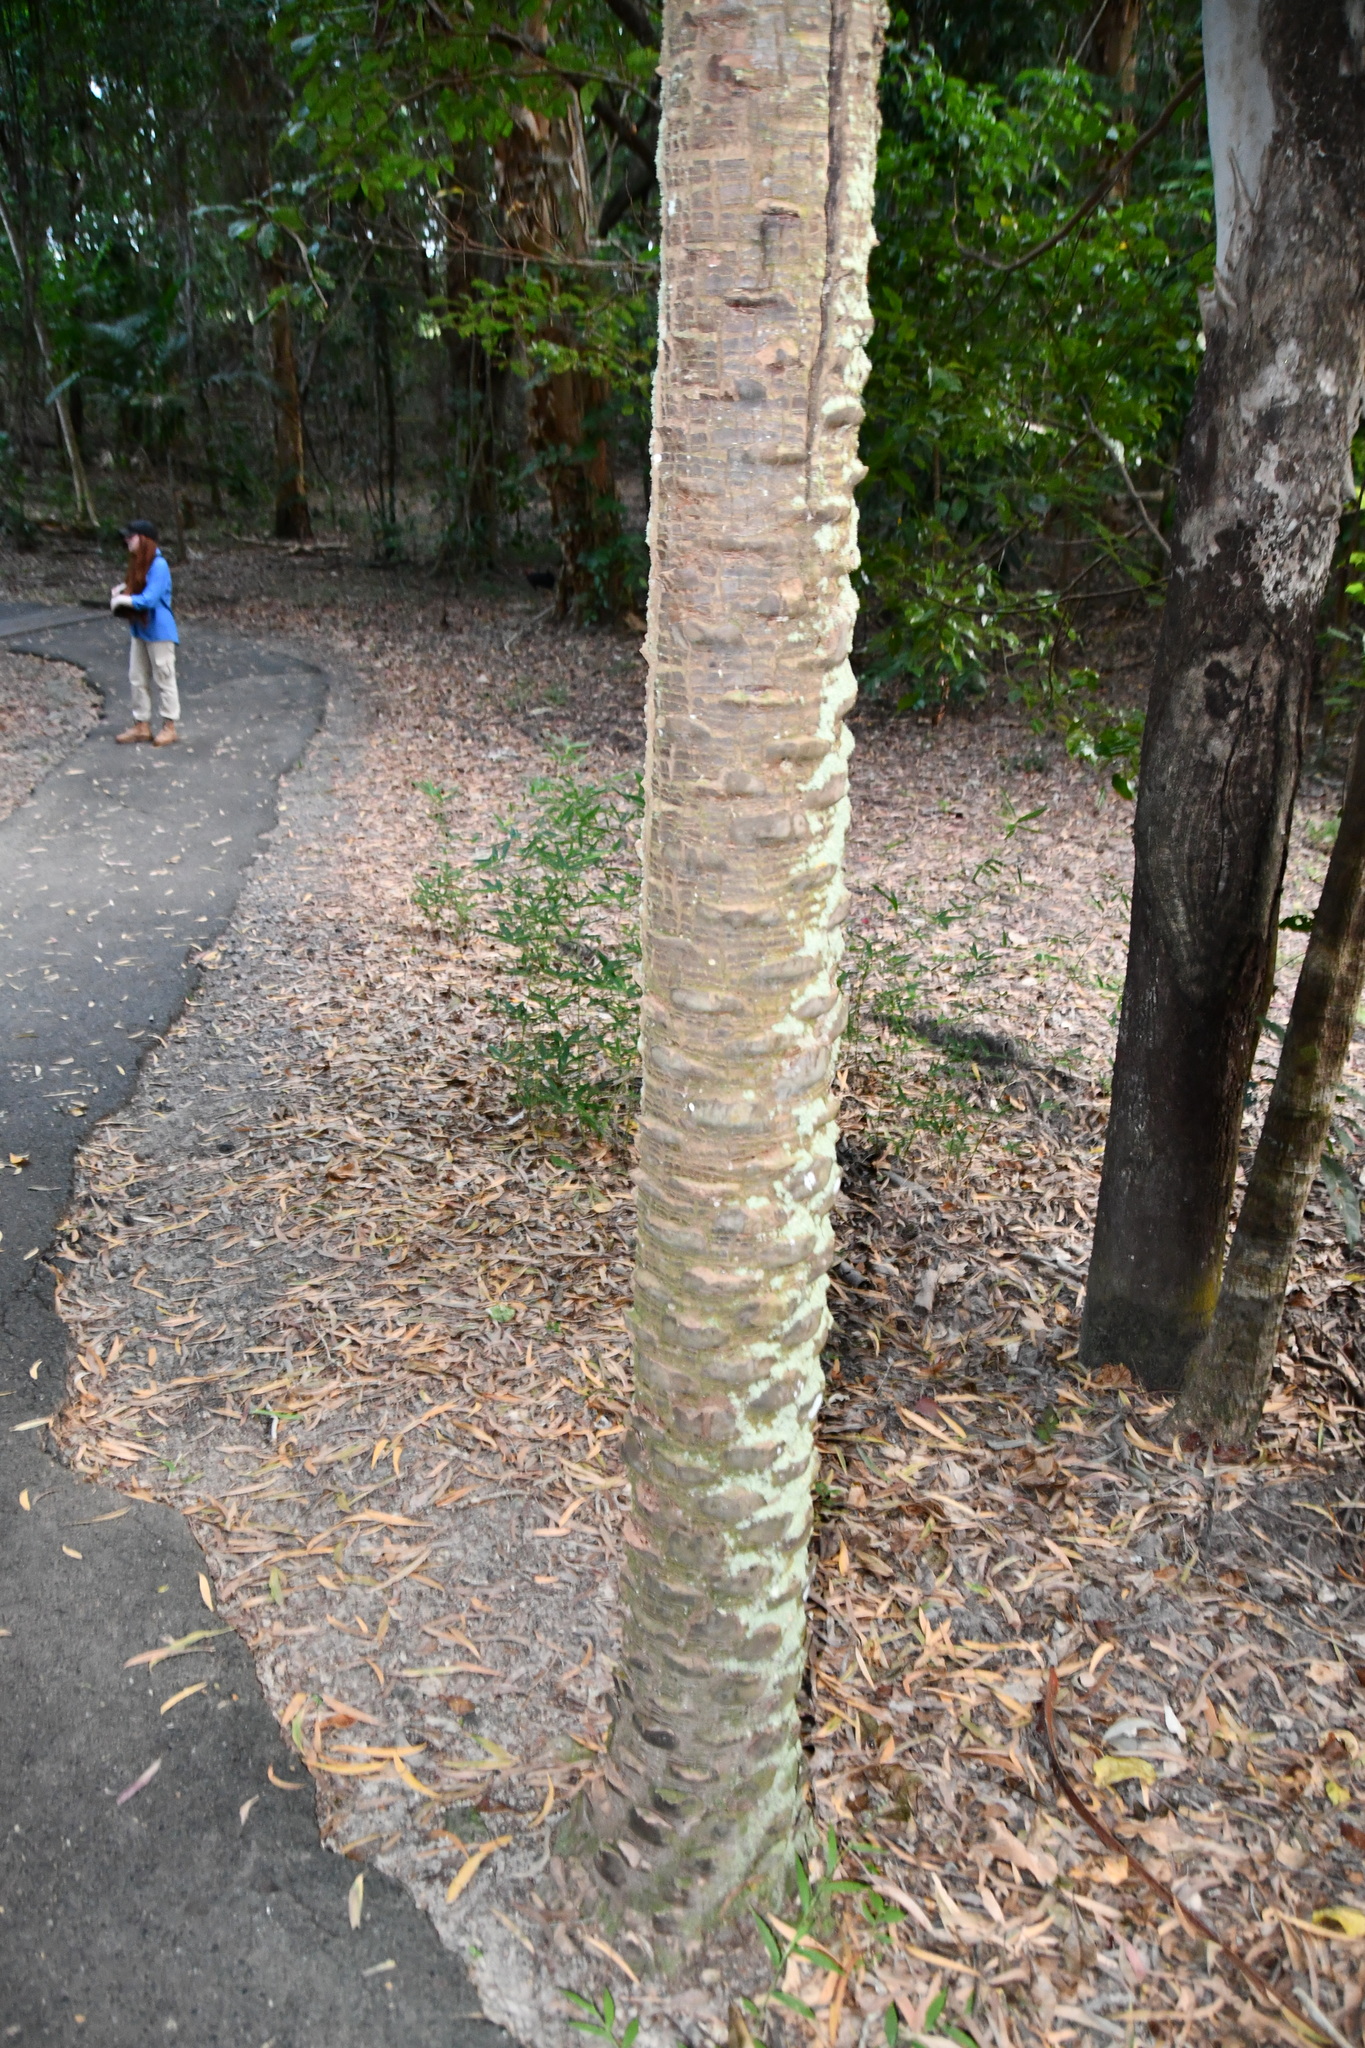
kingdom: Plantae
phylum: Tracheophyta
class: Liliopsida
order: Arecales
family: Arecaceae
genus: Livistona
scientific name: Livistona muelleri
